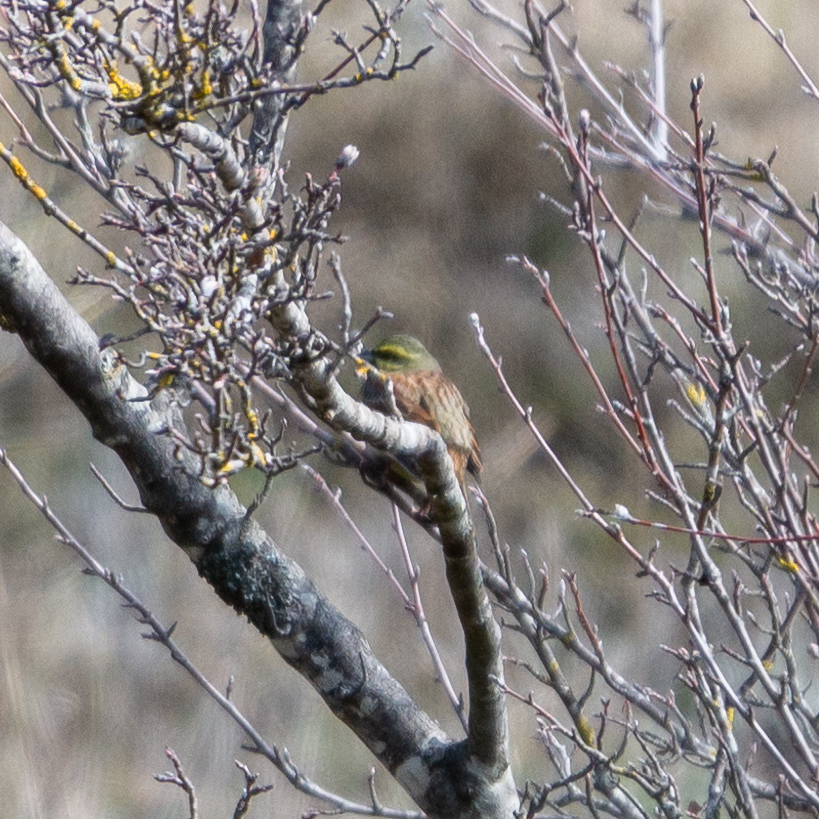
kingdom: Animalia
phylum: Chordata
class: Aves
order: Passeriformes
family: Emberizidae
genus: Emberiza
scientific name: Emberiza cirlus
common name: Cirl bunting
